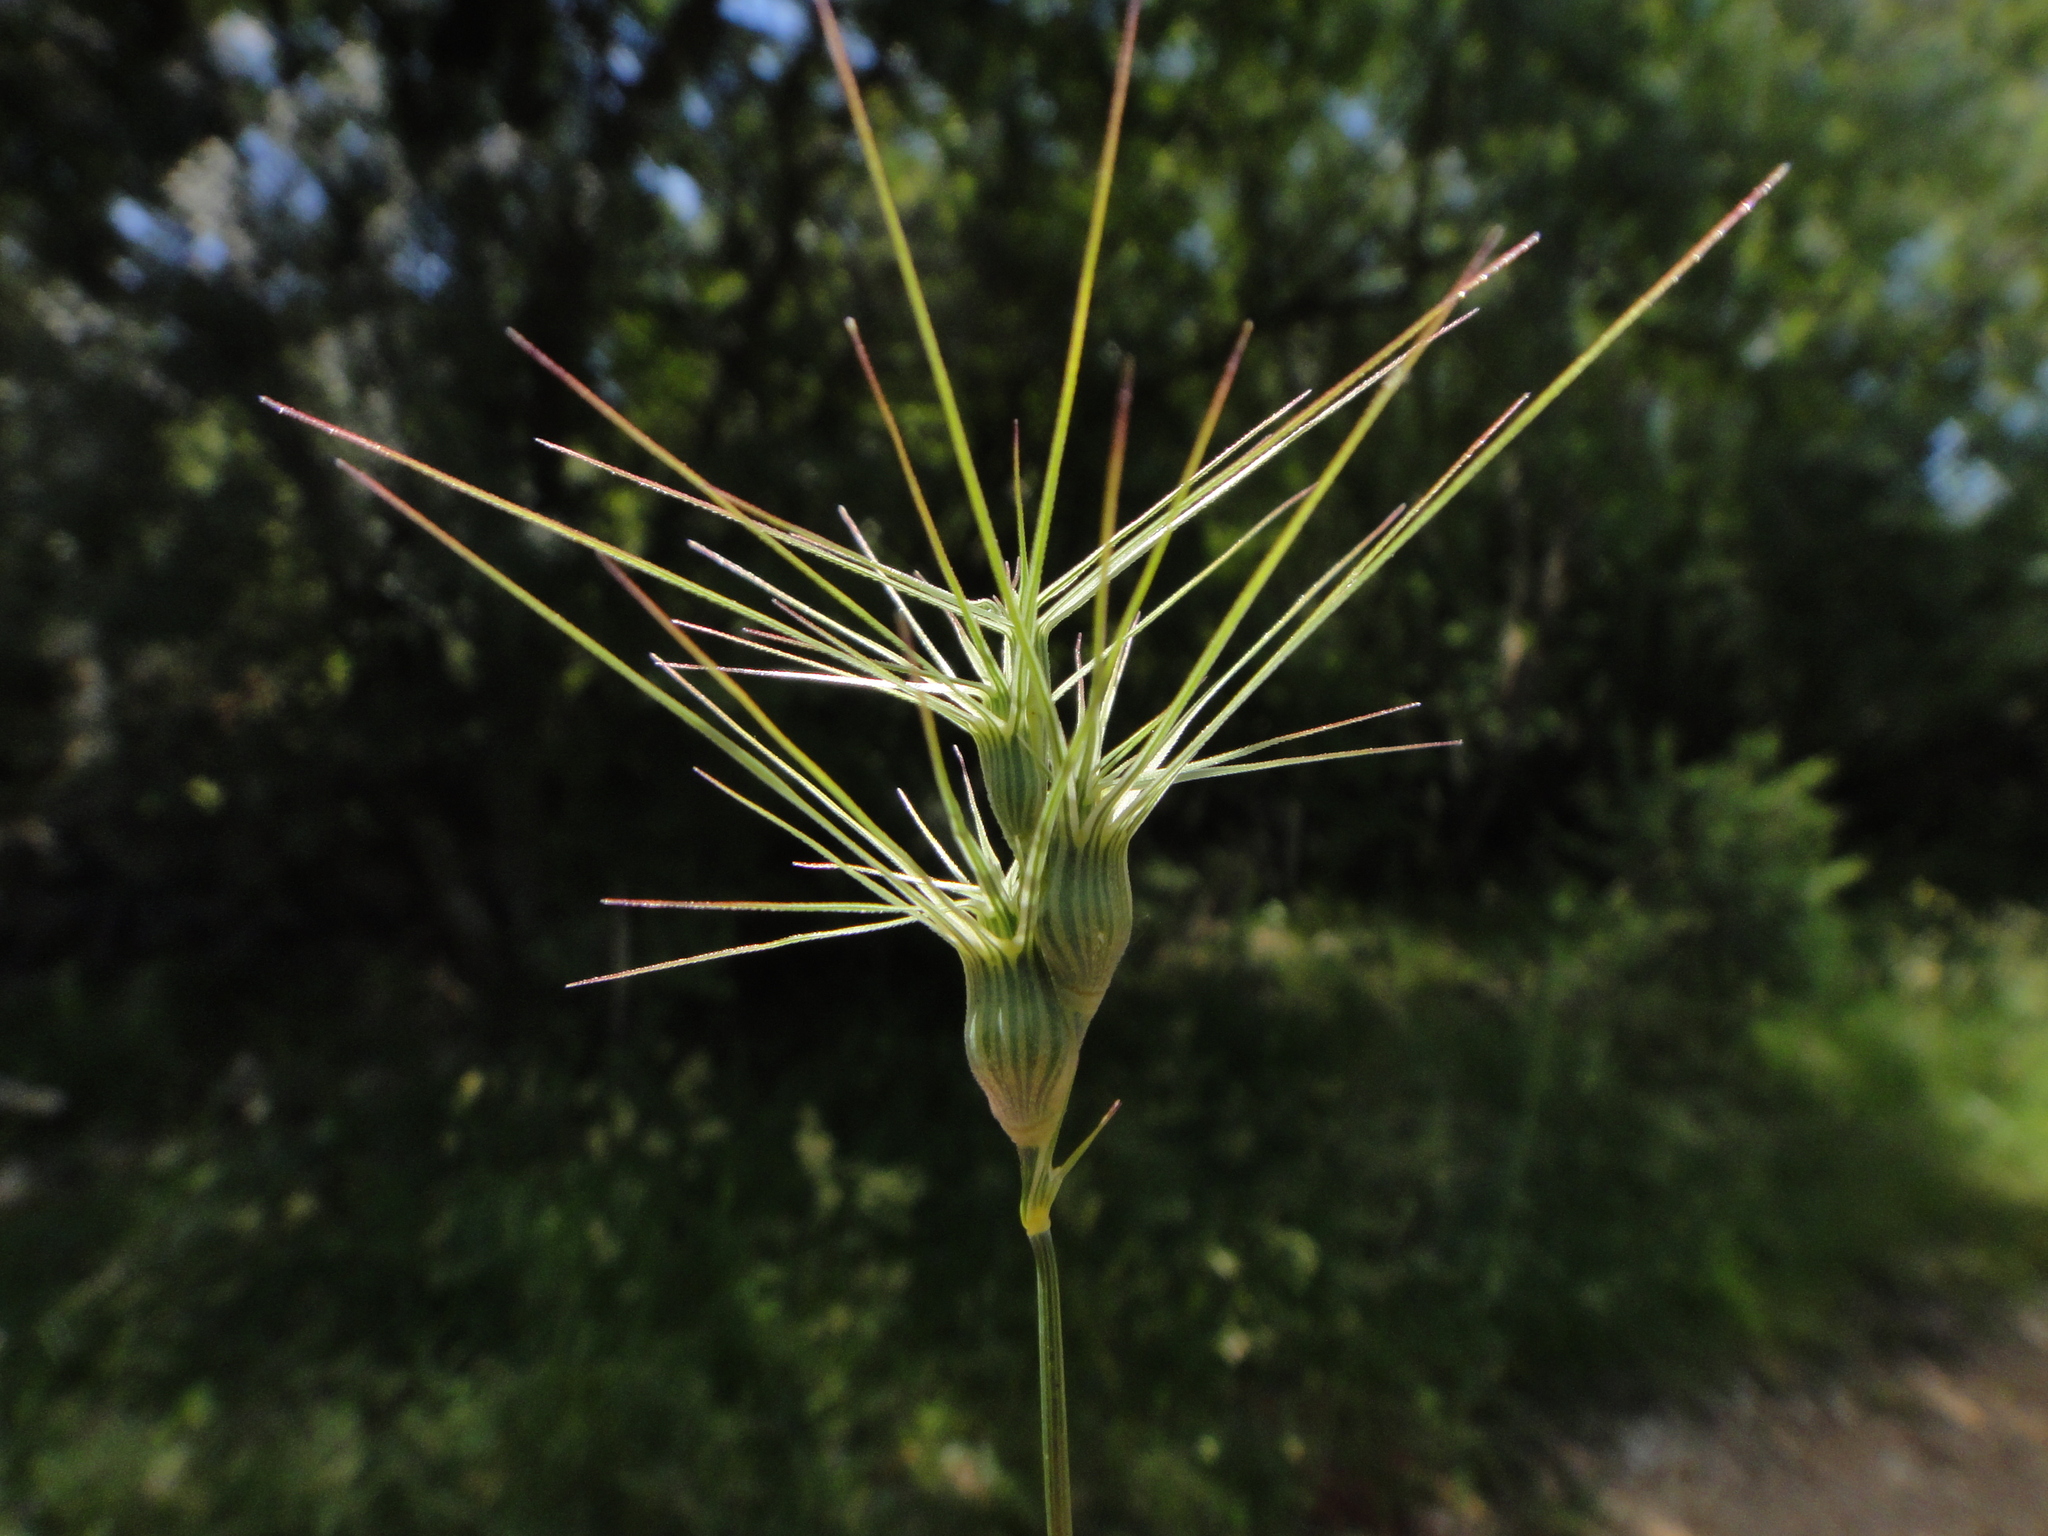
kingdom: Plantae
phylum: Tracheophyta
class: Liliopsida
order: Poales
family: Poaceae
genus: Aegilops
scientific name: Aegilops geniculata
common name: Ovate goat grass
